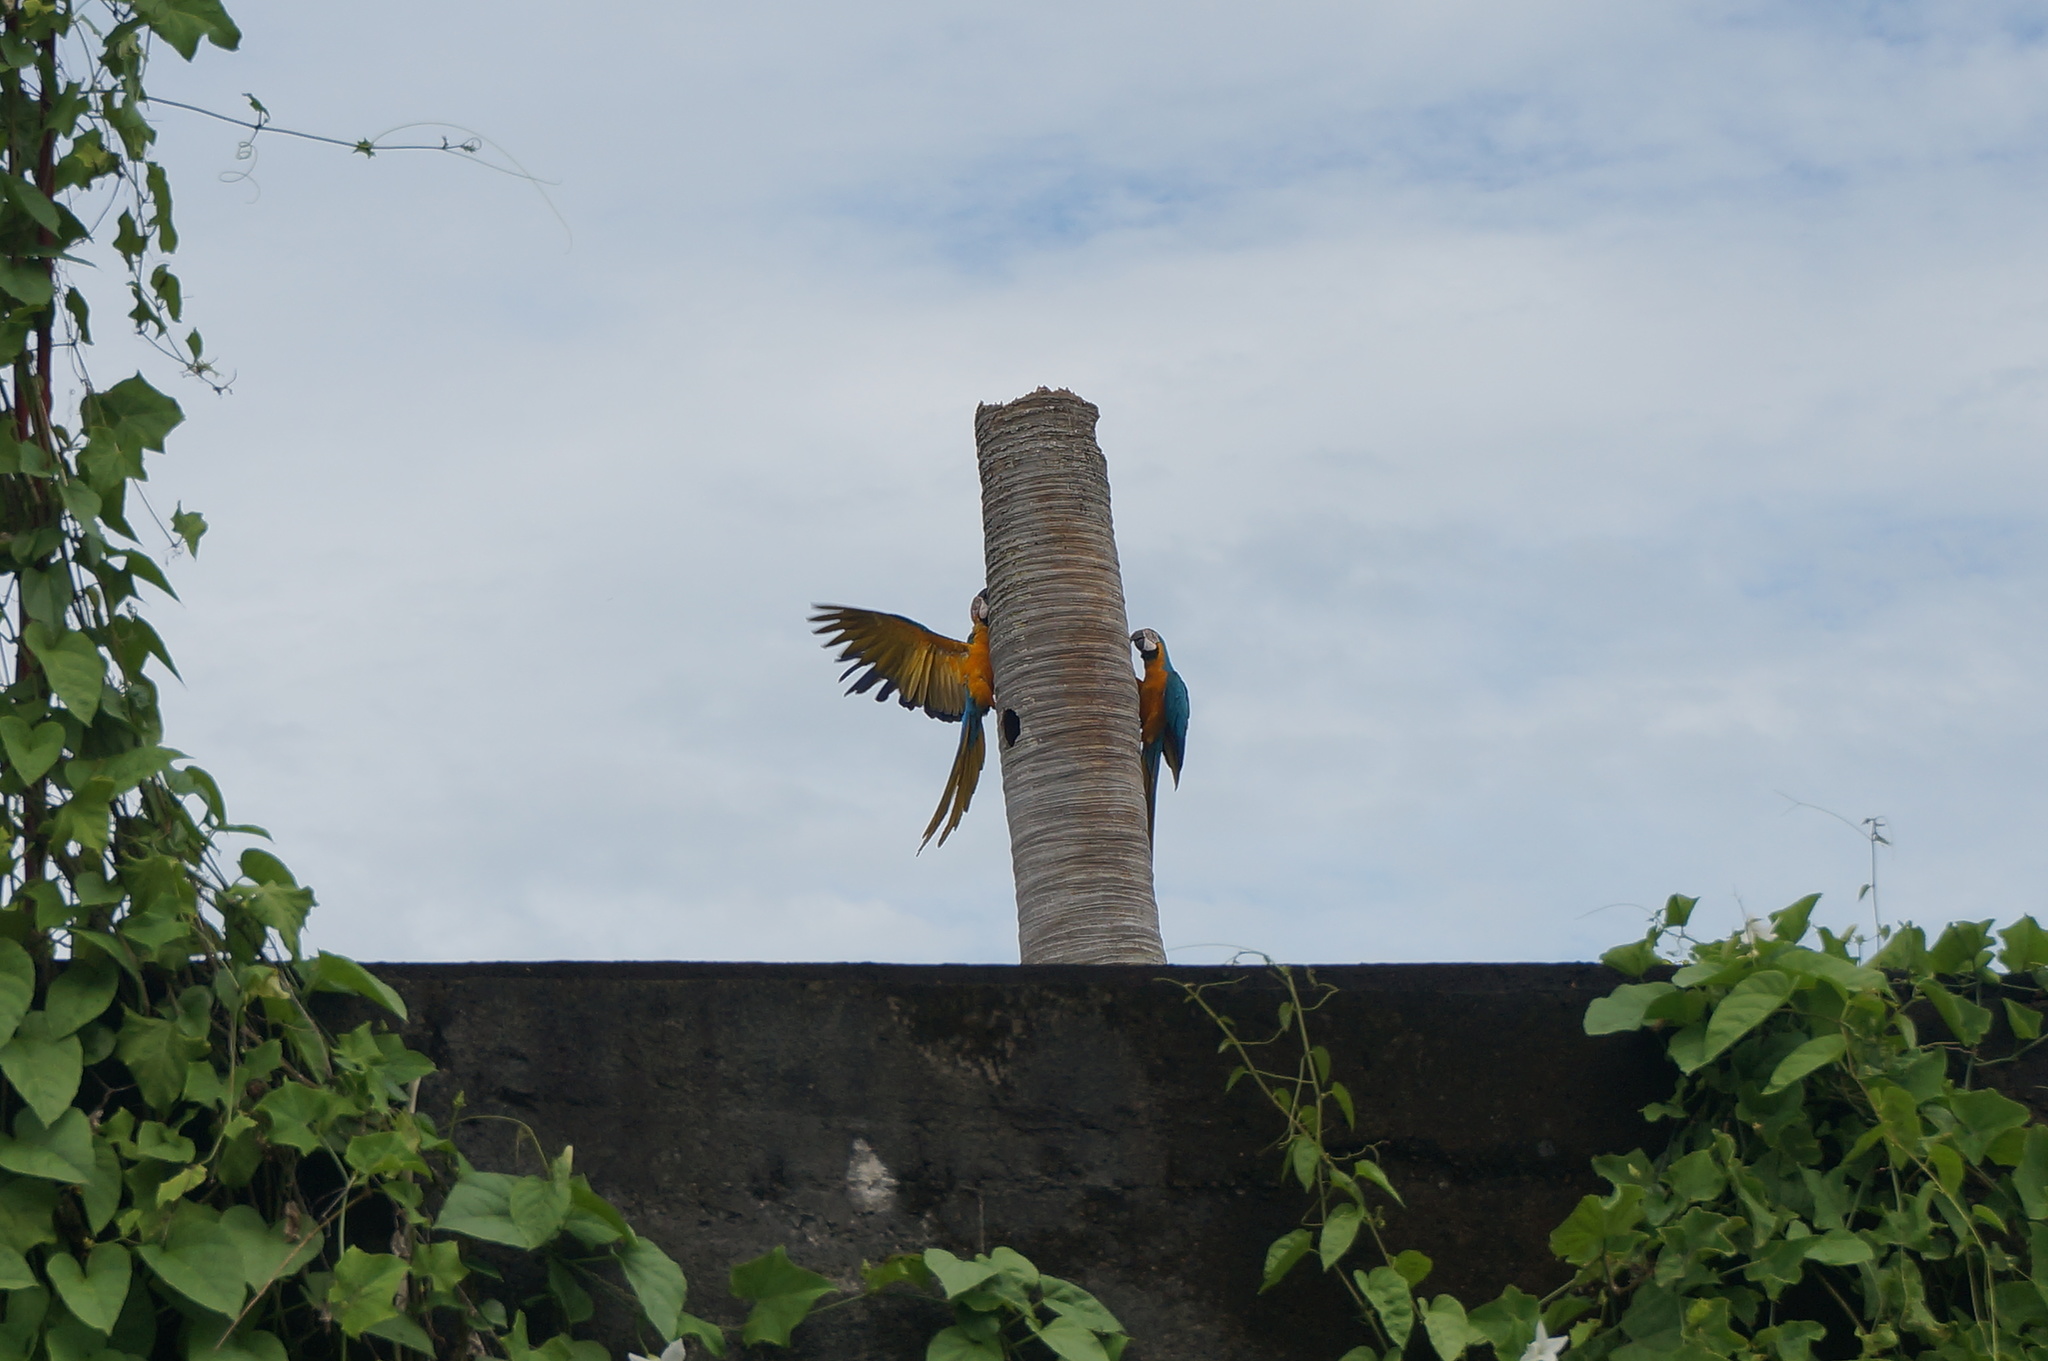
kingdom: Animalia
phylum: Chordata
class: Aves
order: Psittaciformes
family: Psittacidae
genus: Ara
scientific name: Ara ararauna
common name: Blue-and-yellow macaw
